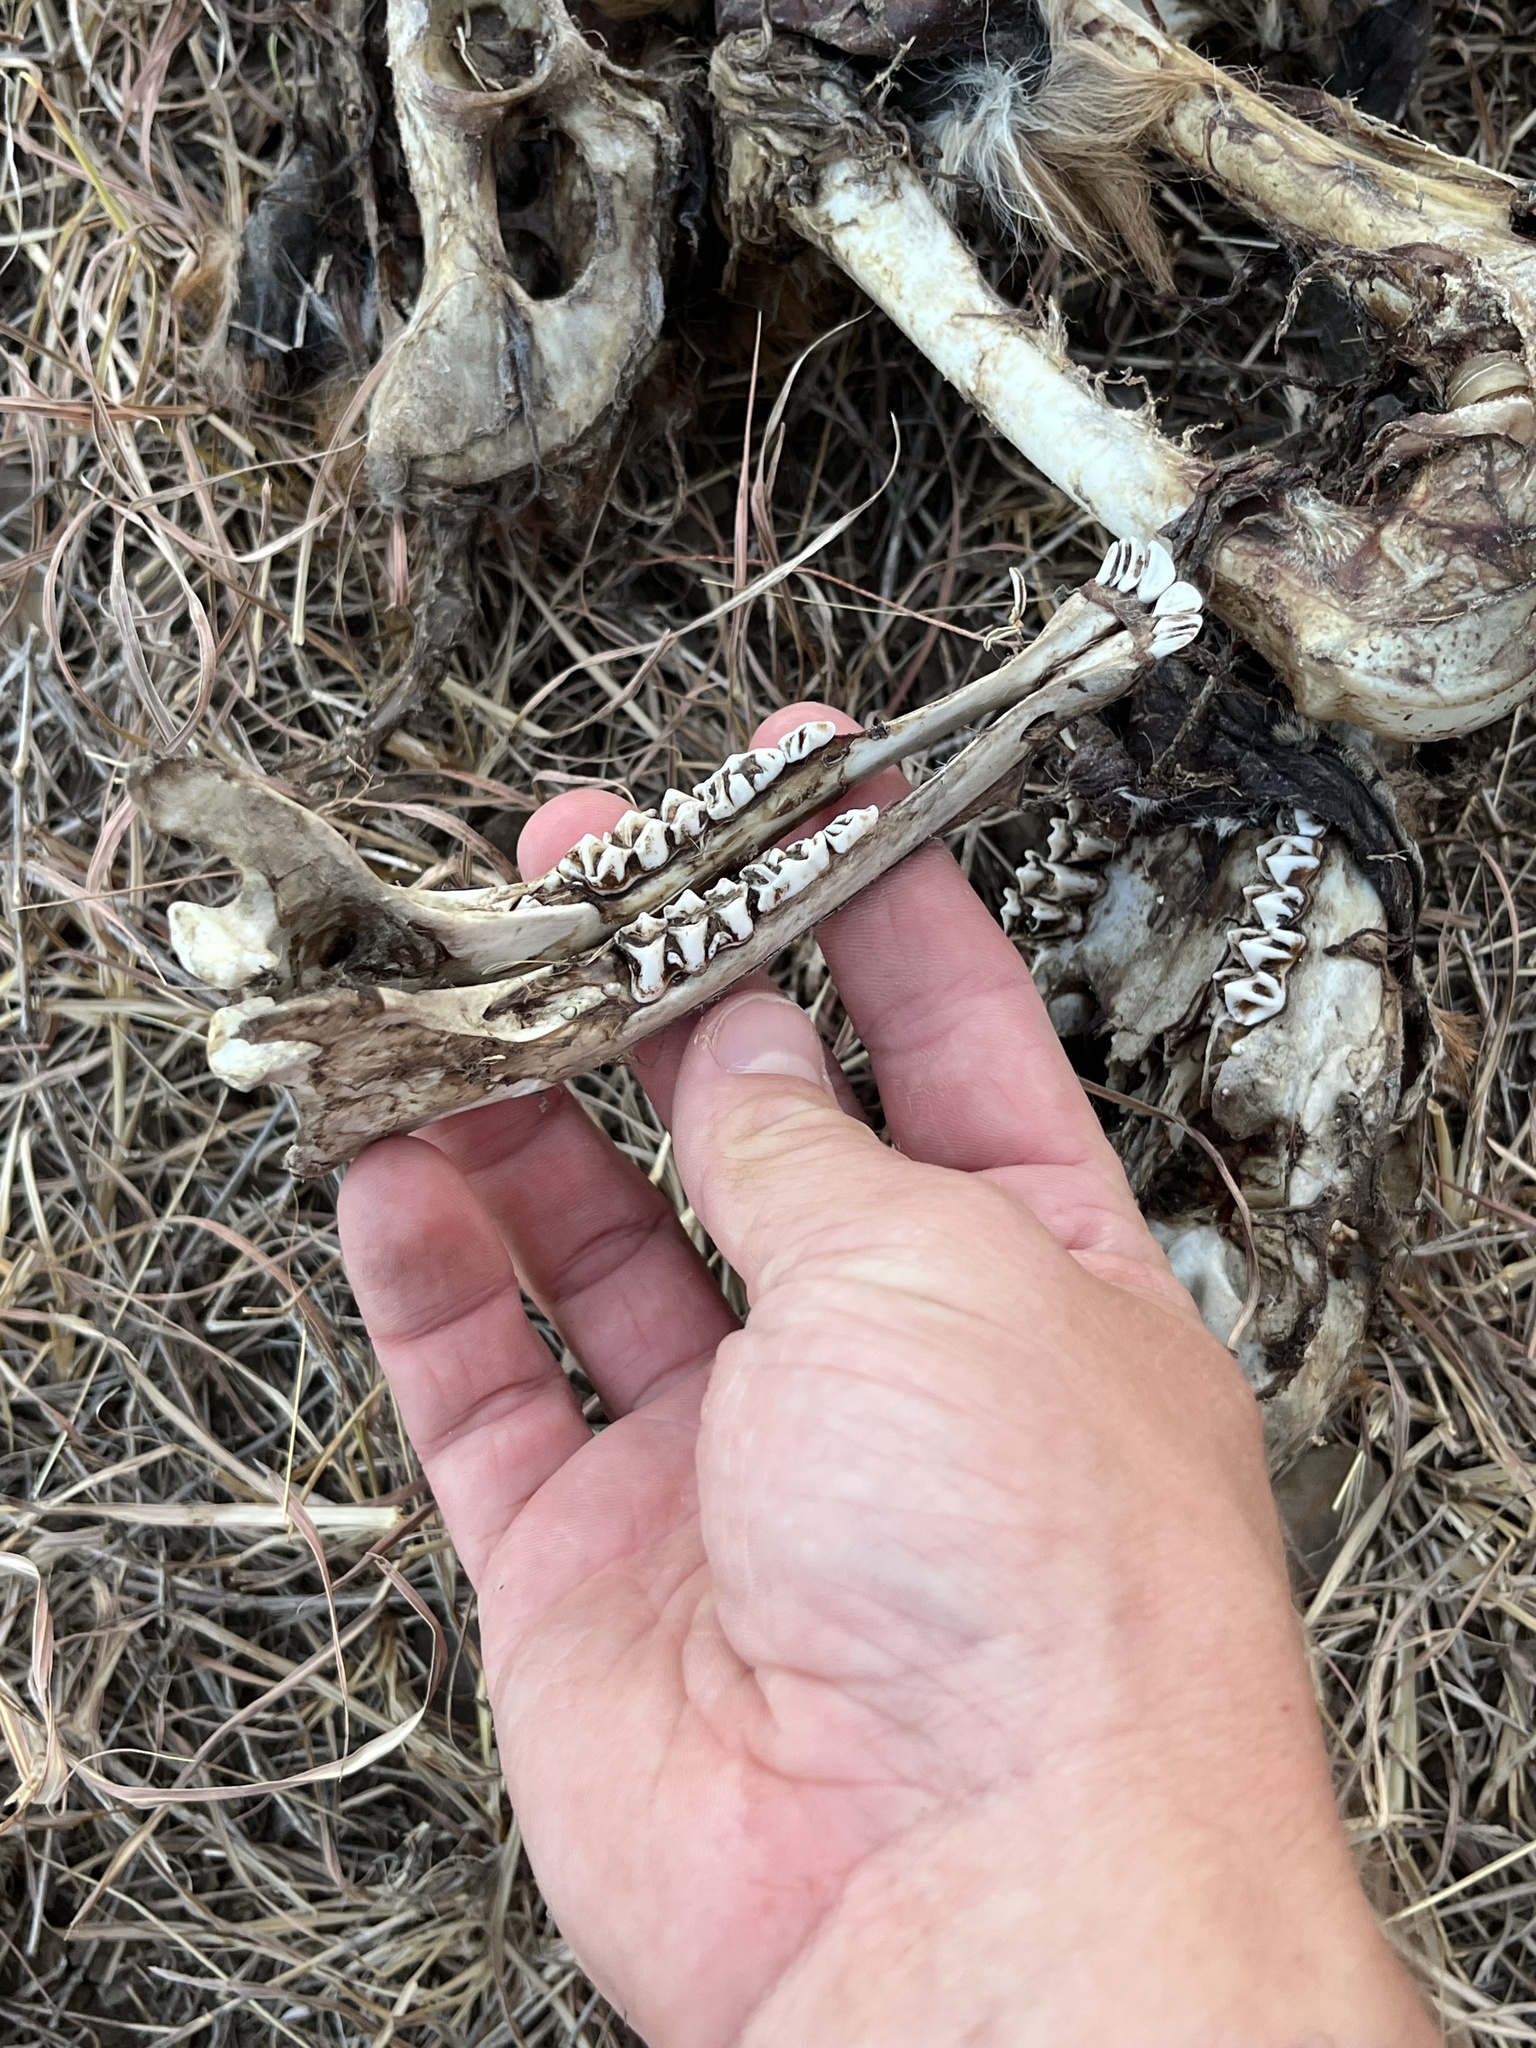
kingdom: Animalia
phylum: Chordata
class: Mammalia
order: Artiodactyla
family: Cervidae
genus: Odocoileus
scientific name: Odocoileus virginianus
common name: White-tailed deer
